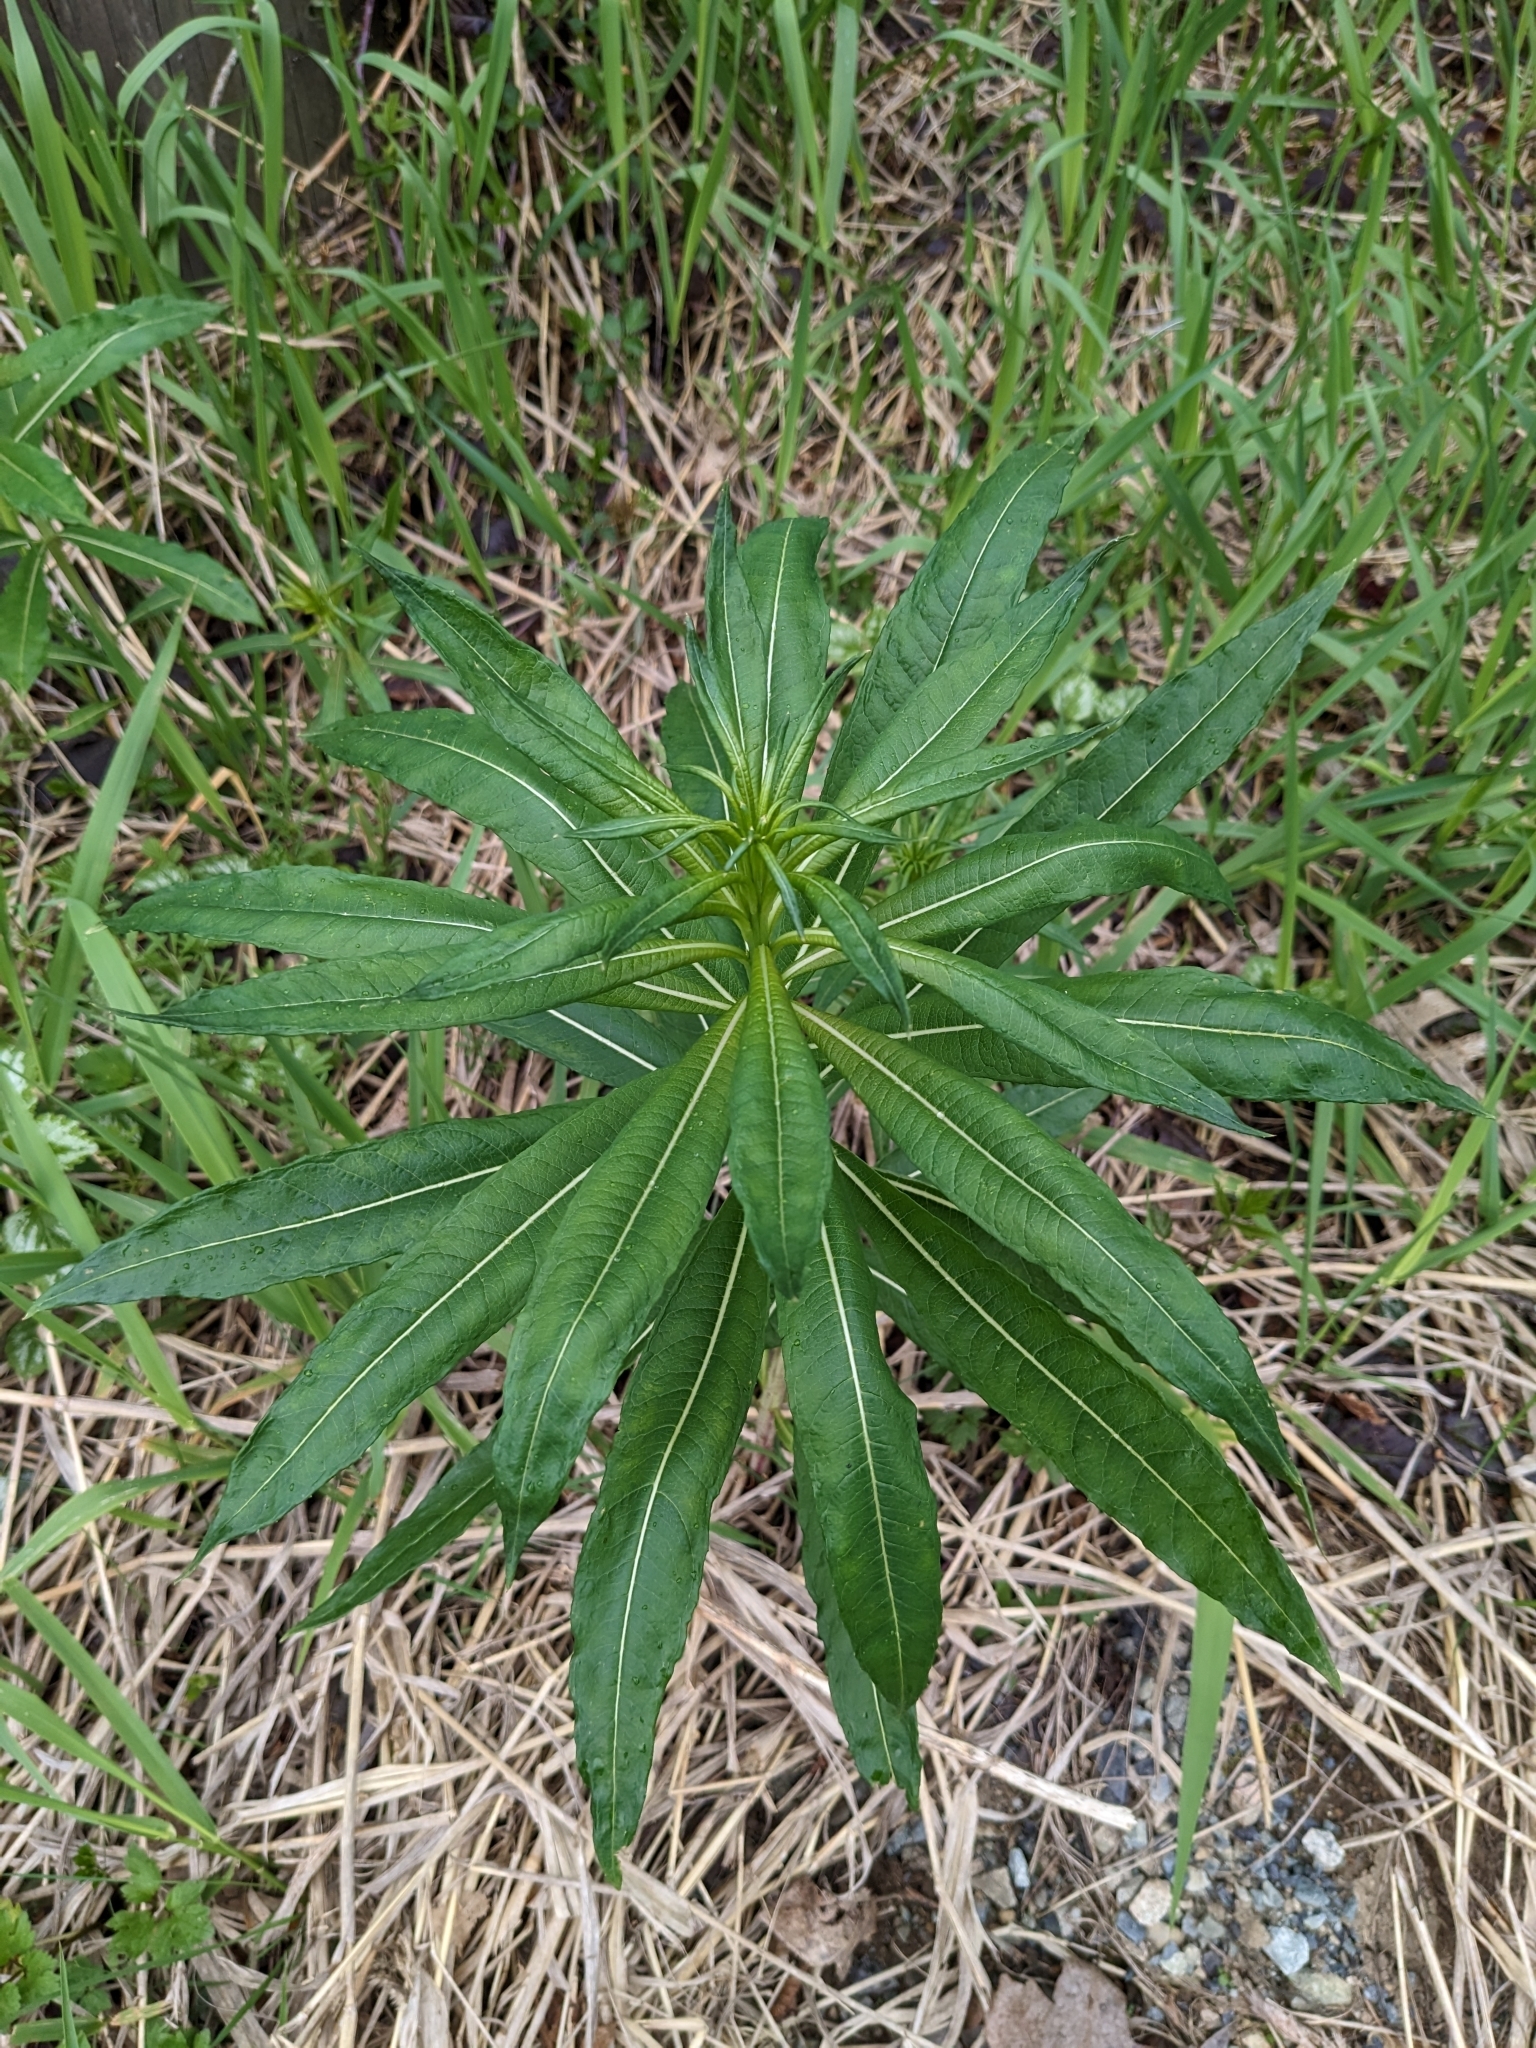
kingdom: Plantae
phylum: Tracheophyta
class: Magnoliopsida
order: Myrtales
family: Onagraceae
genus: Chamaenerion
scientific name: Chamaenerion angustifolium
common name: Fireweed
